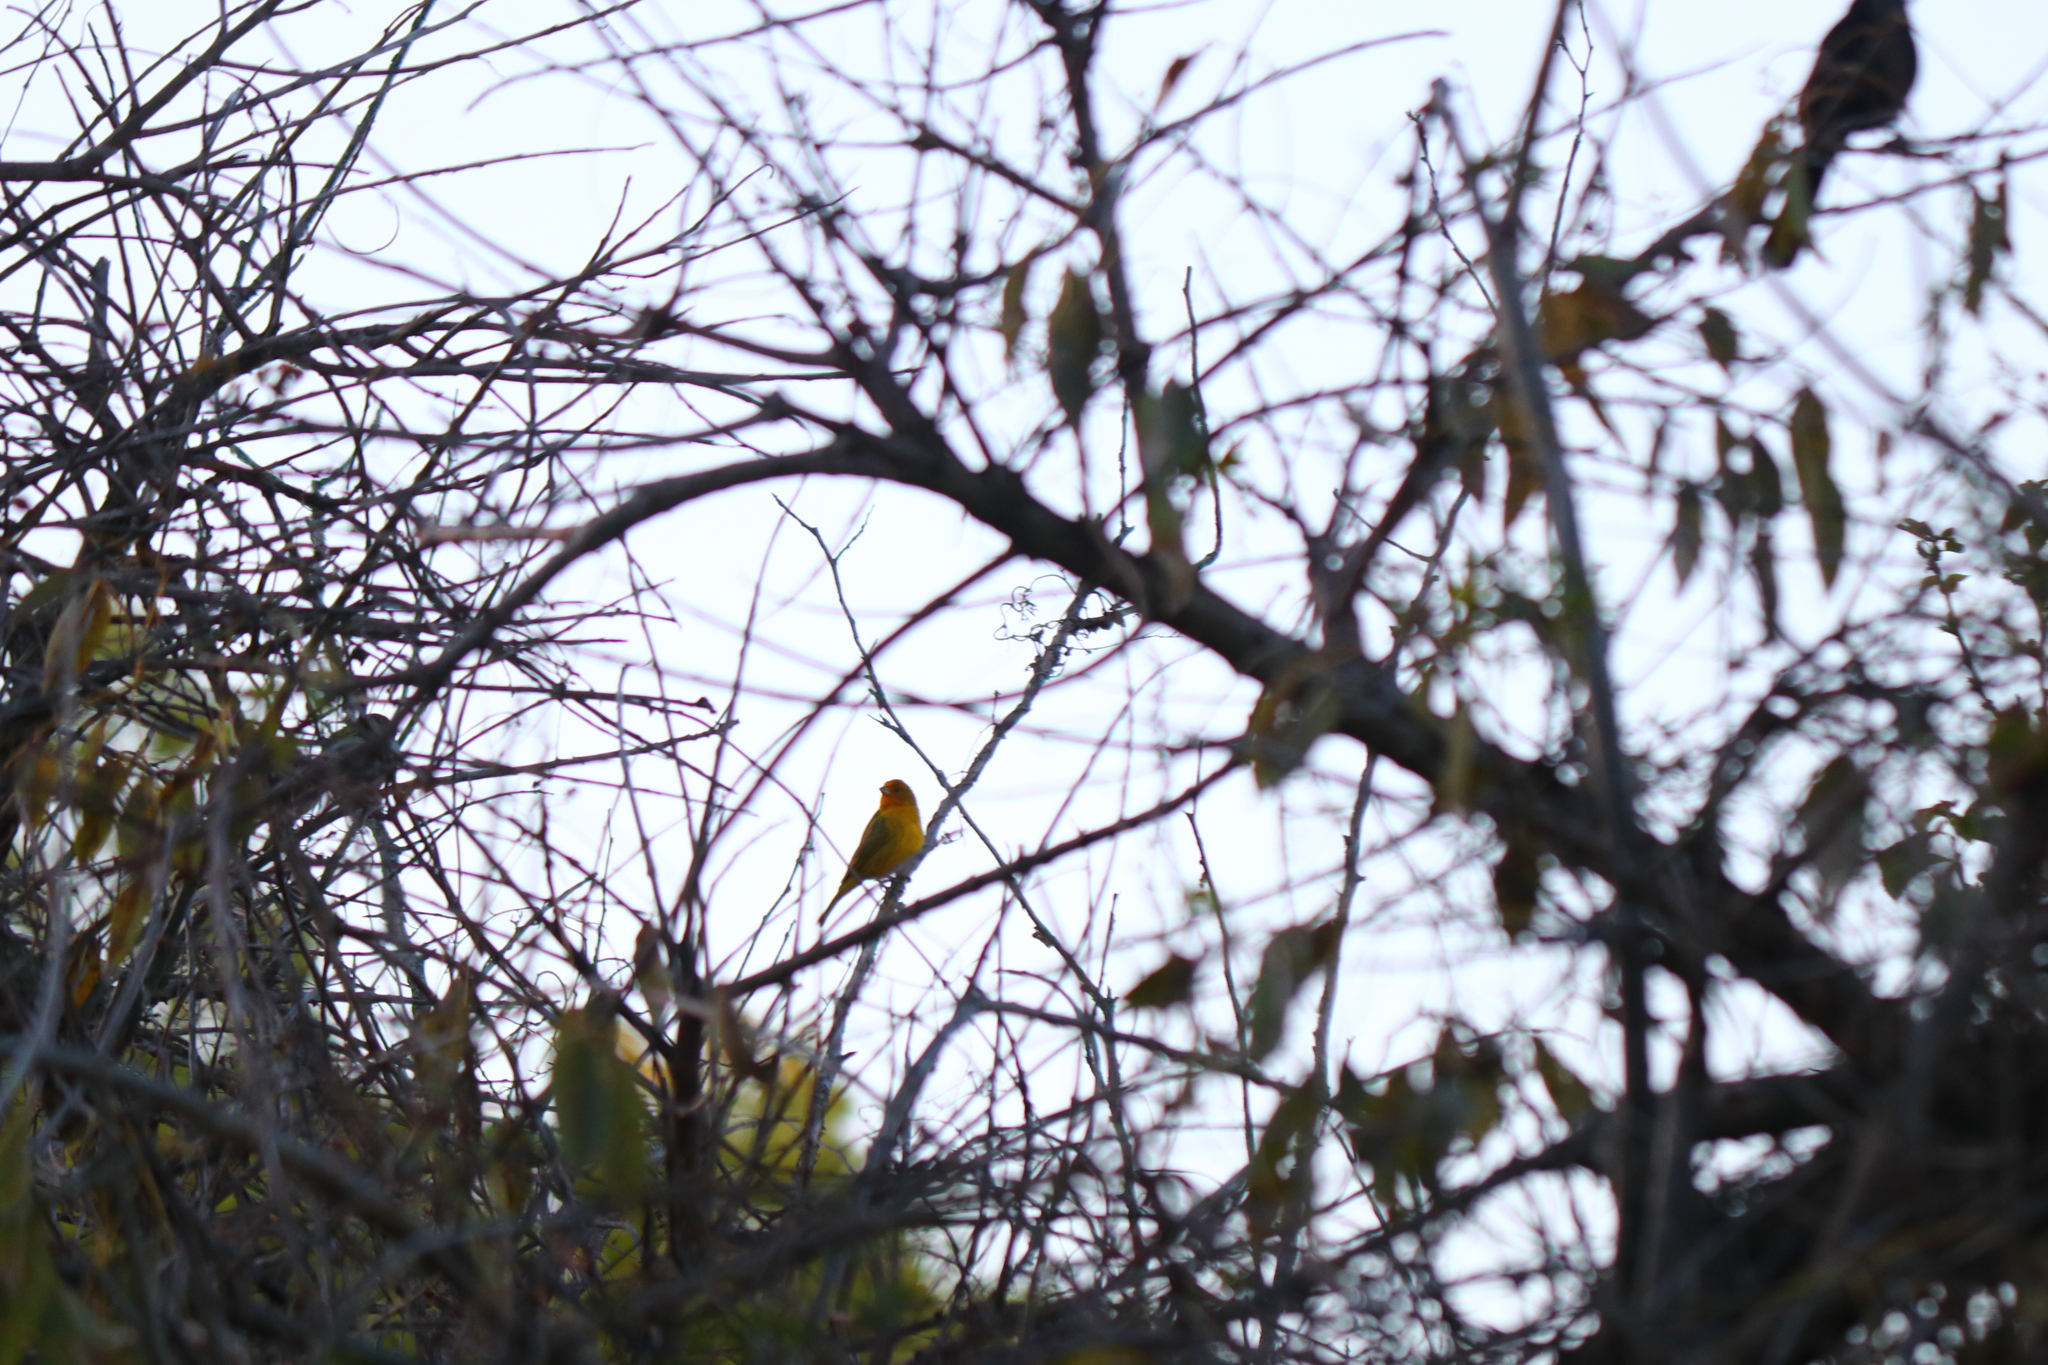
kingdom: Animalia
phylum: Chordata
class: Aves
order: Passeriformes
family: Thraupidae
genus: Sicalis
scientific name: Sicalis flaveola
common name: Saffron finch
